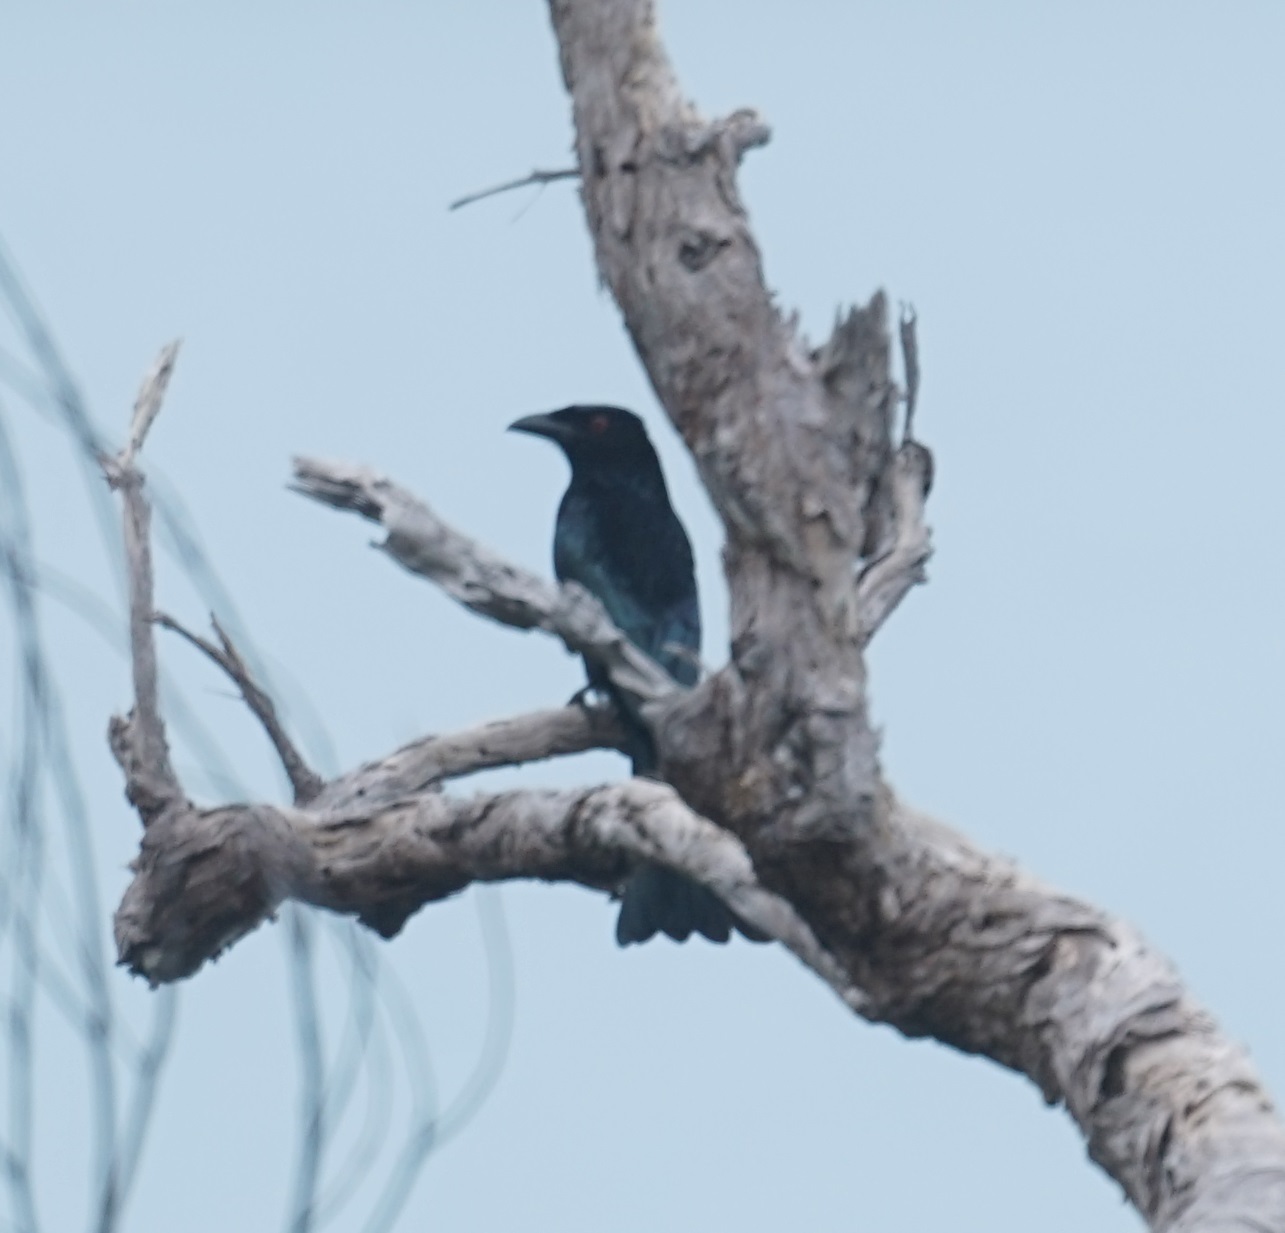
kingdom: Animalia
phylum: Chordata
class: Aves
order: Passeriformes
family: Dicruridae
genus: Dicrurus
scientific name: Dicrurus bracteatus
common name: Spangled drongo
